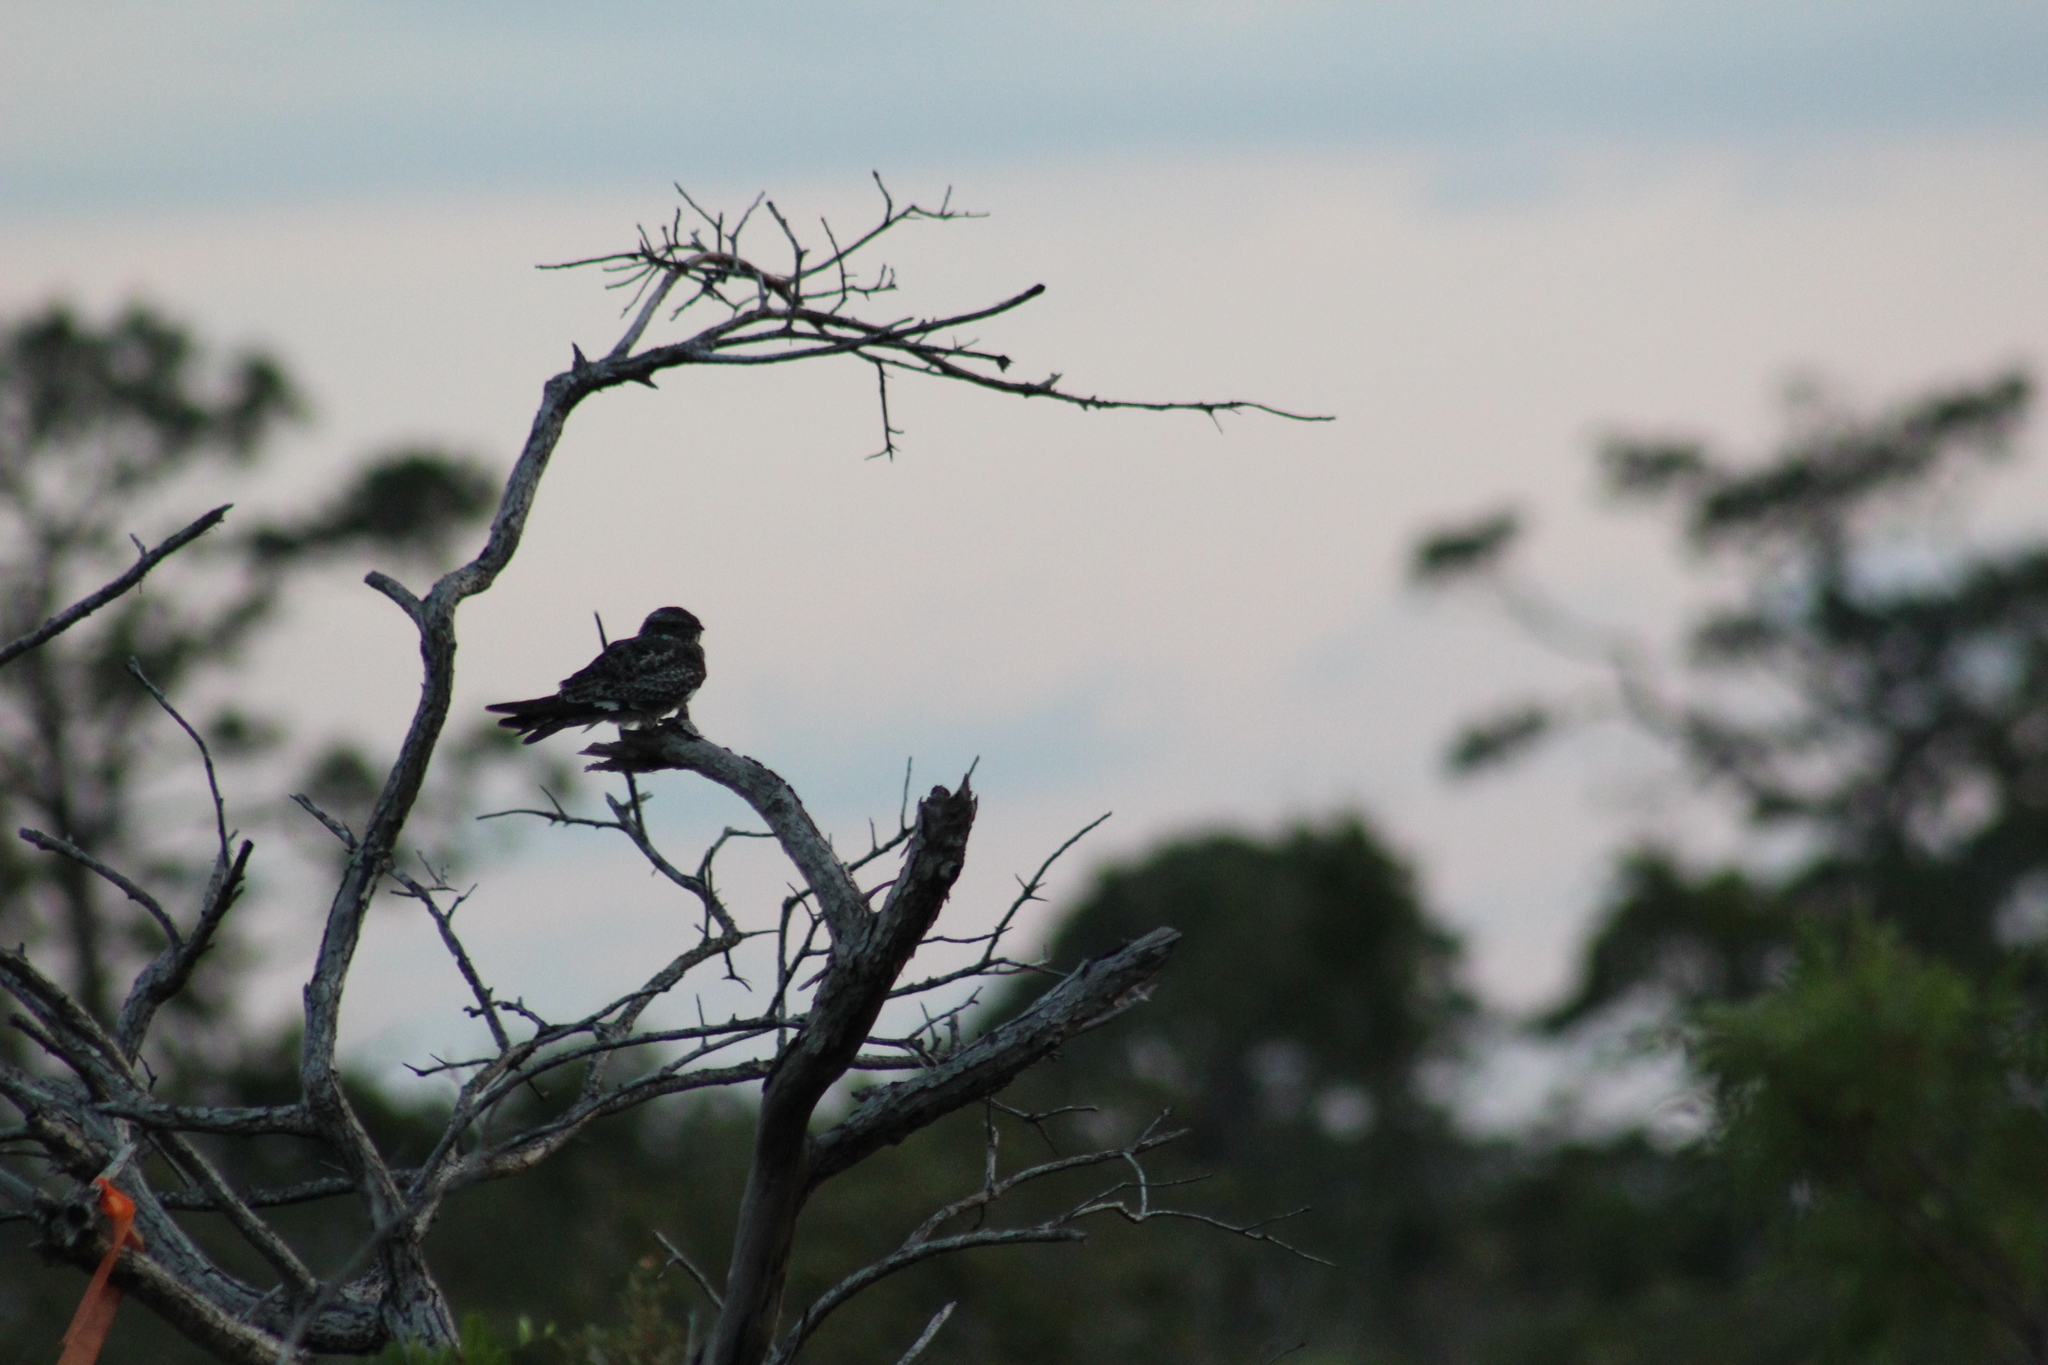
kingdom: Animalia
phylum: Chordata
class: Aves
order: Caprimulgiformes
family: Caprimulgidae
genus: Chordeiles
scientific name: Chordeiles minor
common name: Common nighthawk
